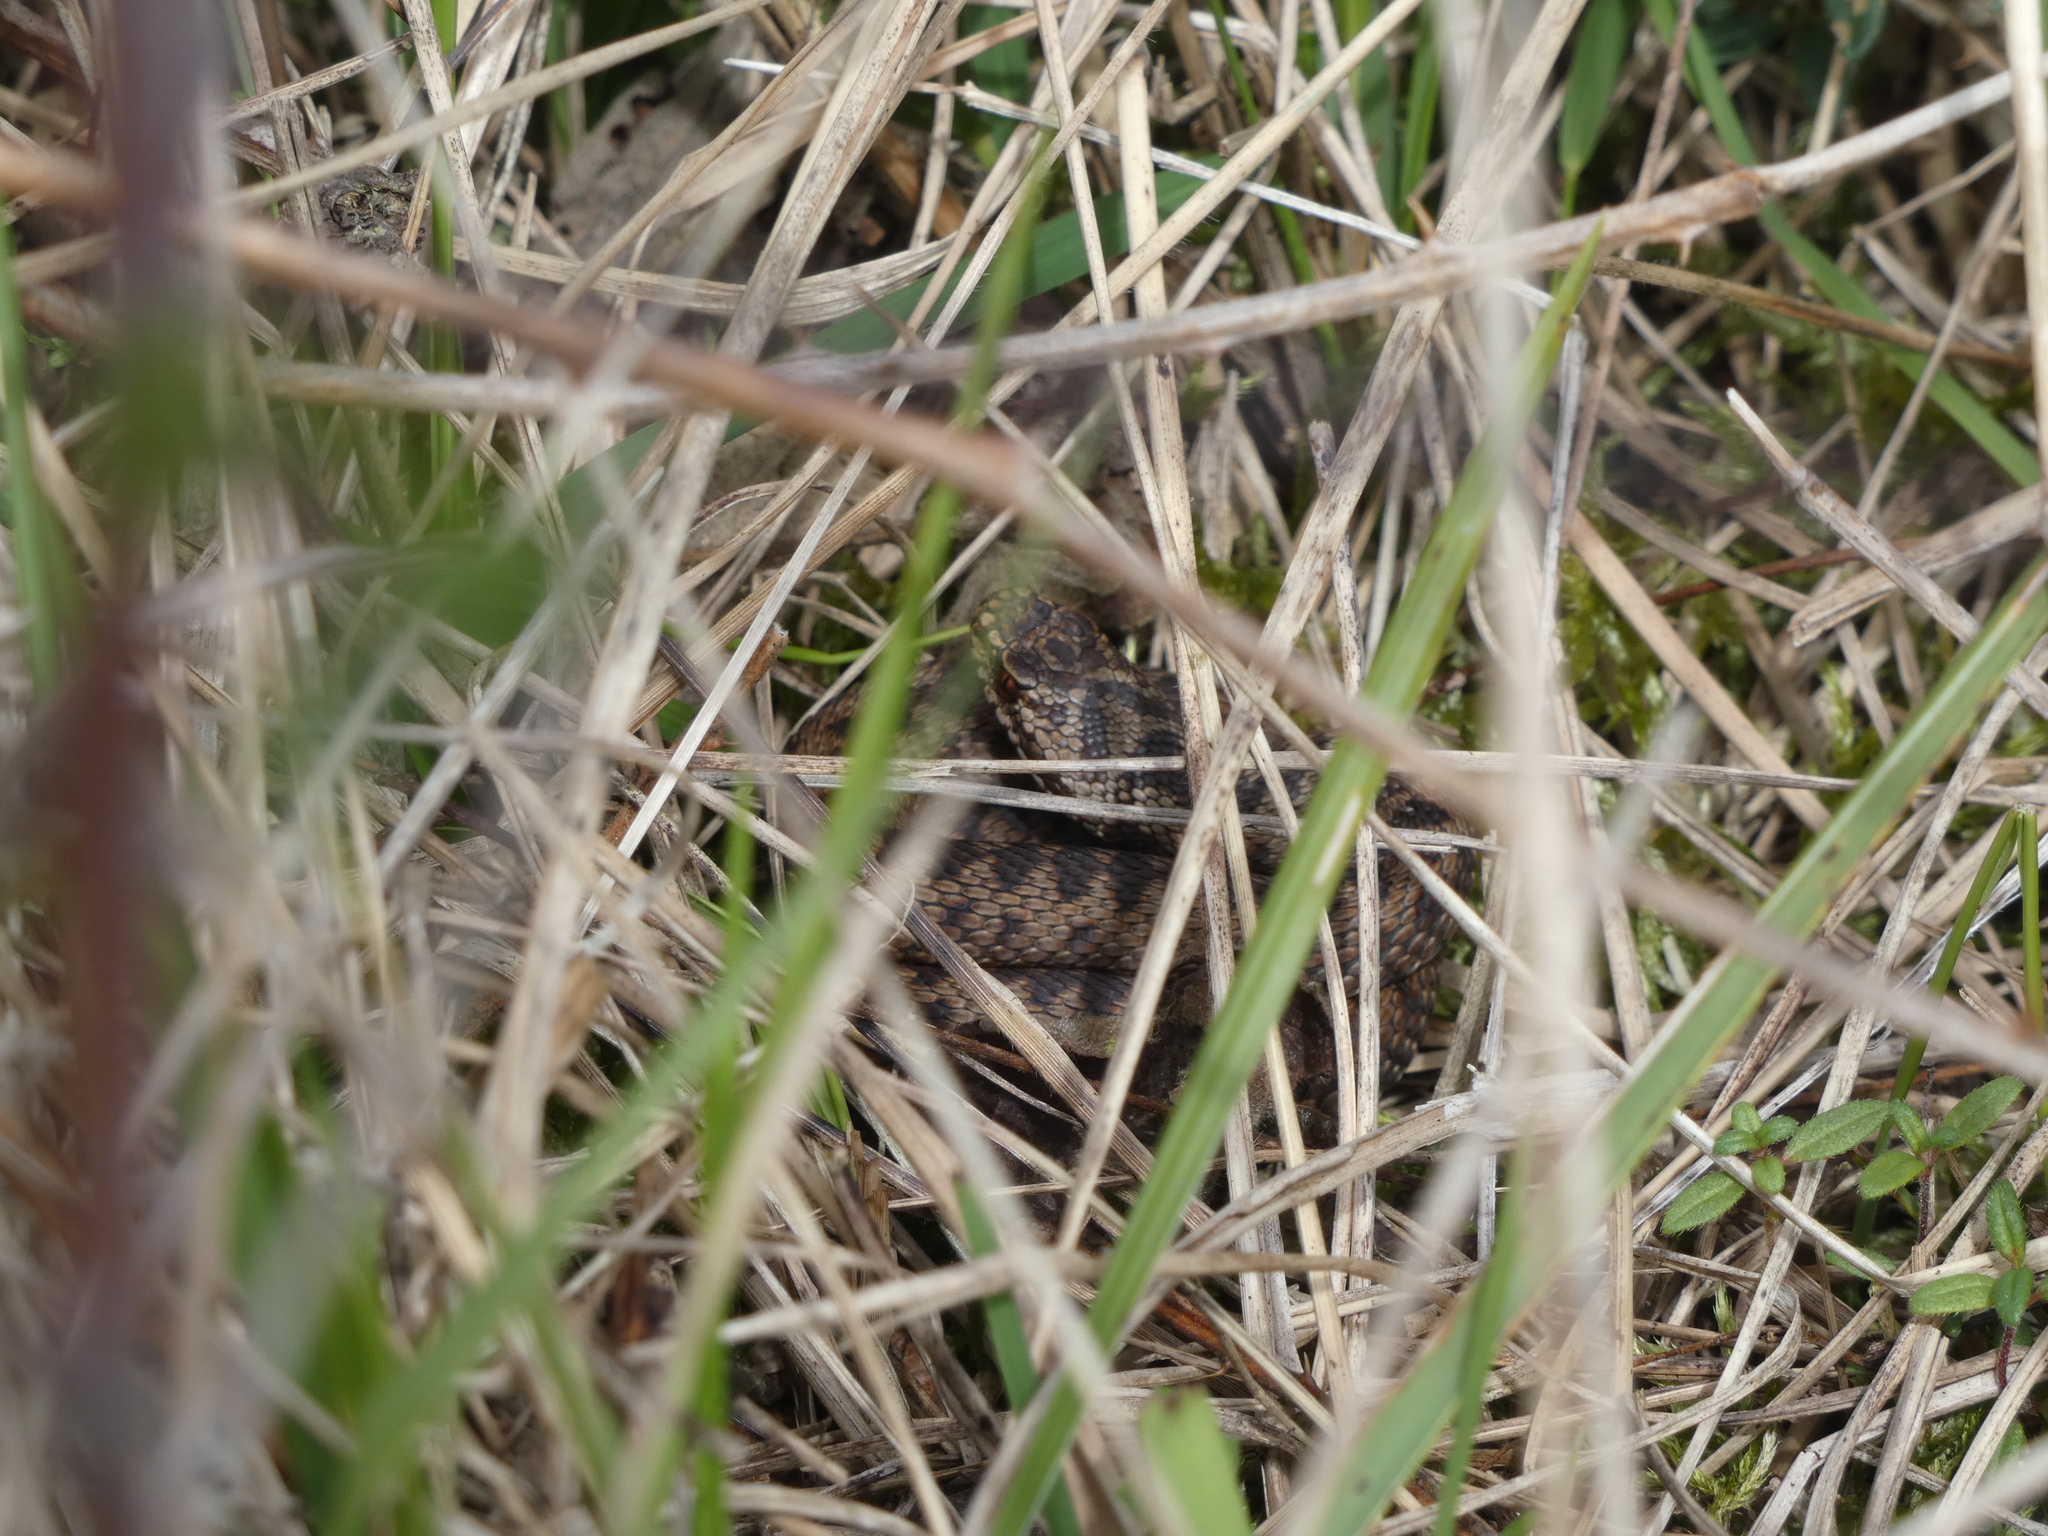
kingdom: Animalia
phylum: Chordata
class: Squamata
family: Viperidae
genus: Vipera
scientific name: Vipera berus
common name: Adder
